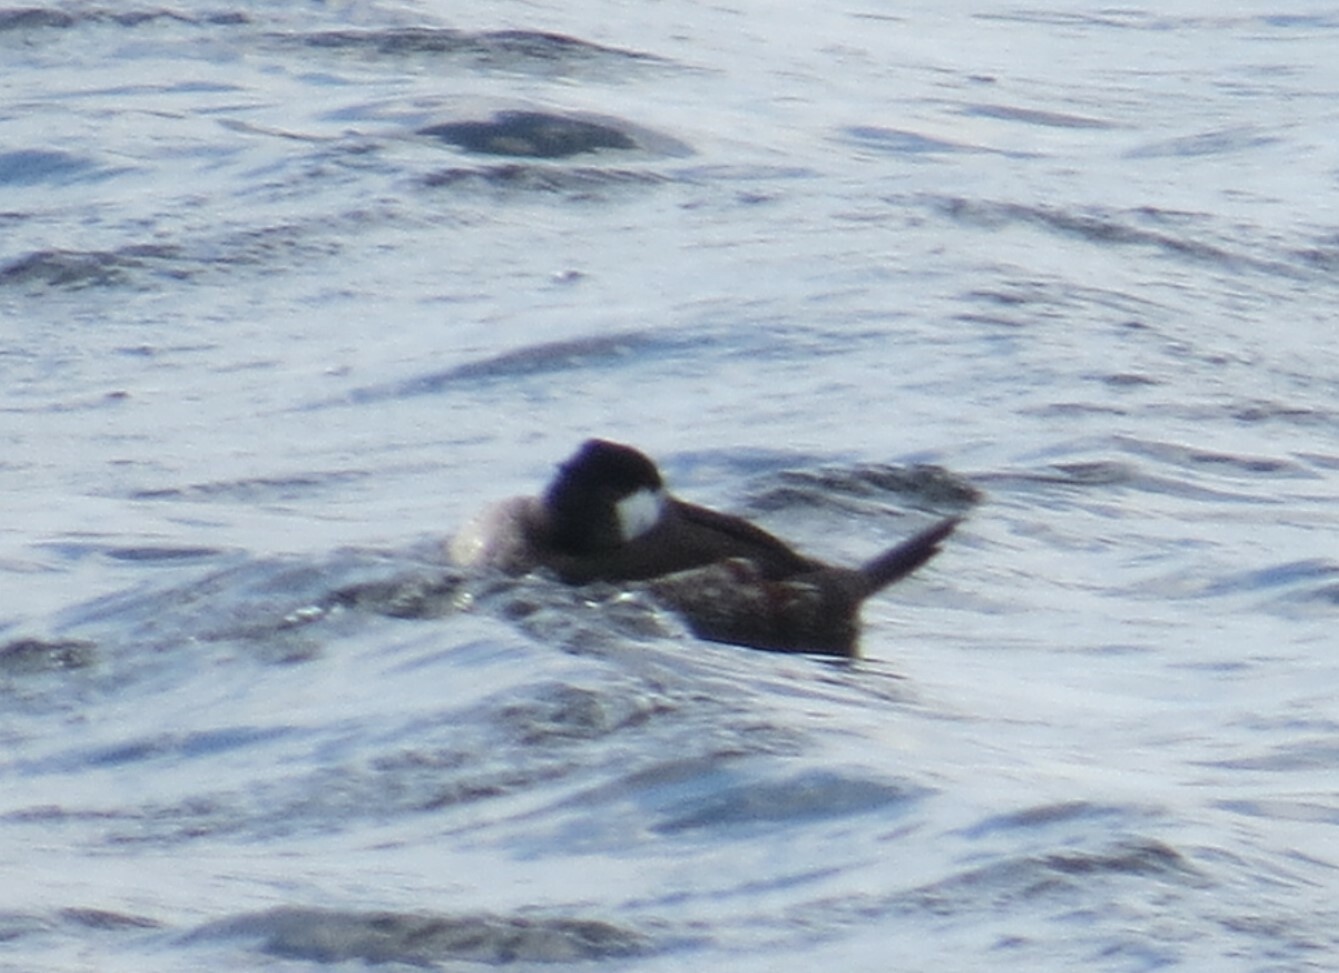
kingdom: Animalia
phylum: Chordata
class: Aves
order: Anseriformes
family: Anatidae
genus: Oxyura
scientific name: Oxyura jamaicensis
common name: Ruddy duck
